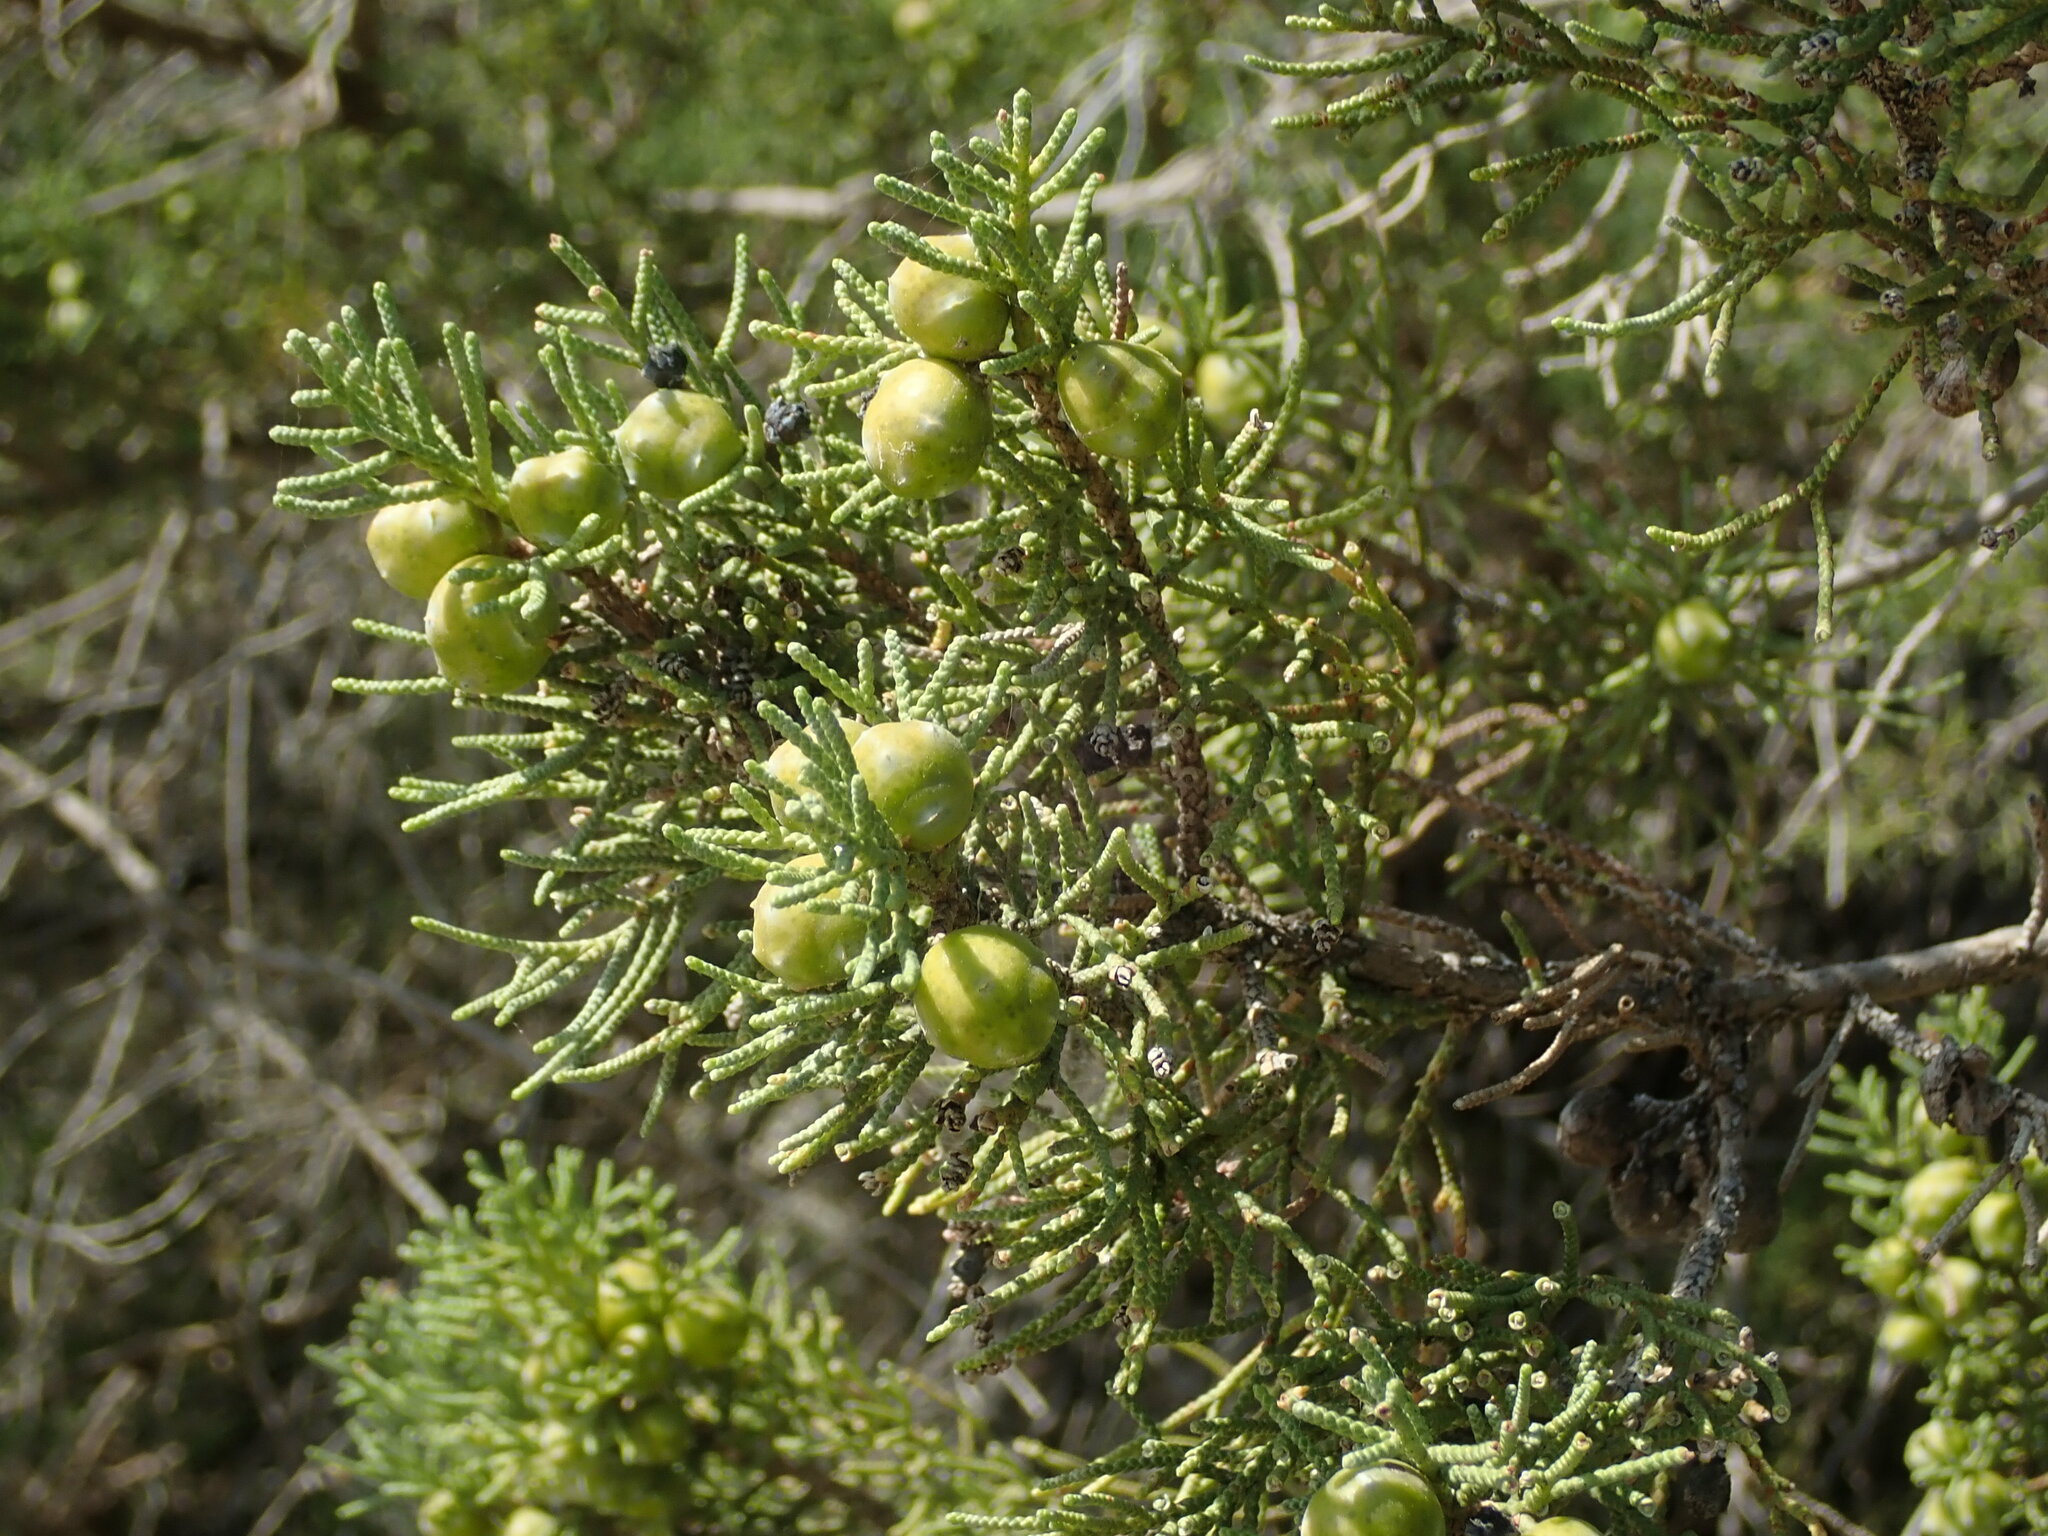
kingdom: Plantae
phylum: Tracheophyta
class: Pinopsida
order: Pinales
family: Cupressaceae
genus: Juniperus
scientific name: Juniperus phoenicea
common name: Phoenician juniper
